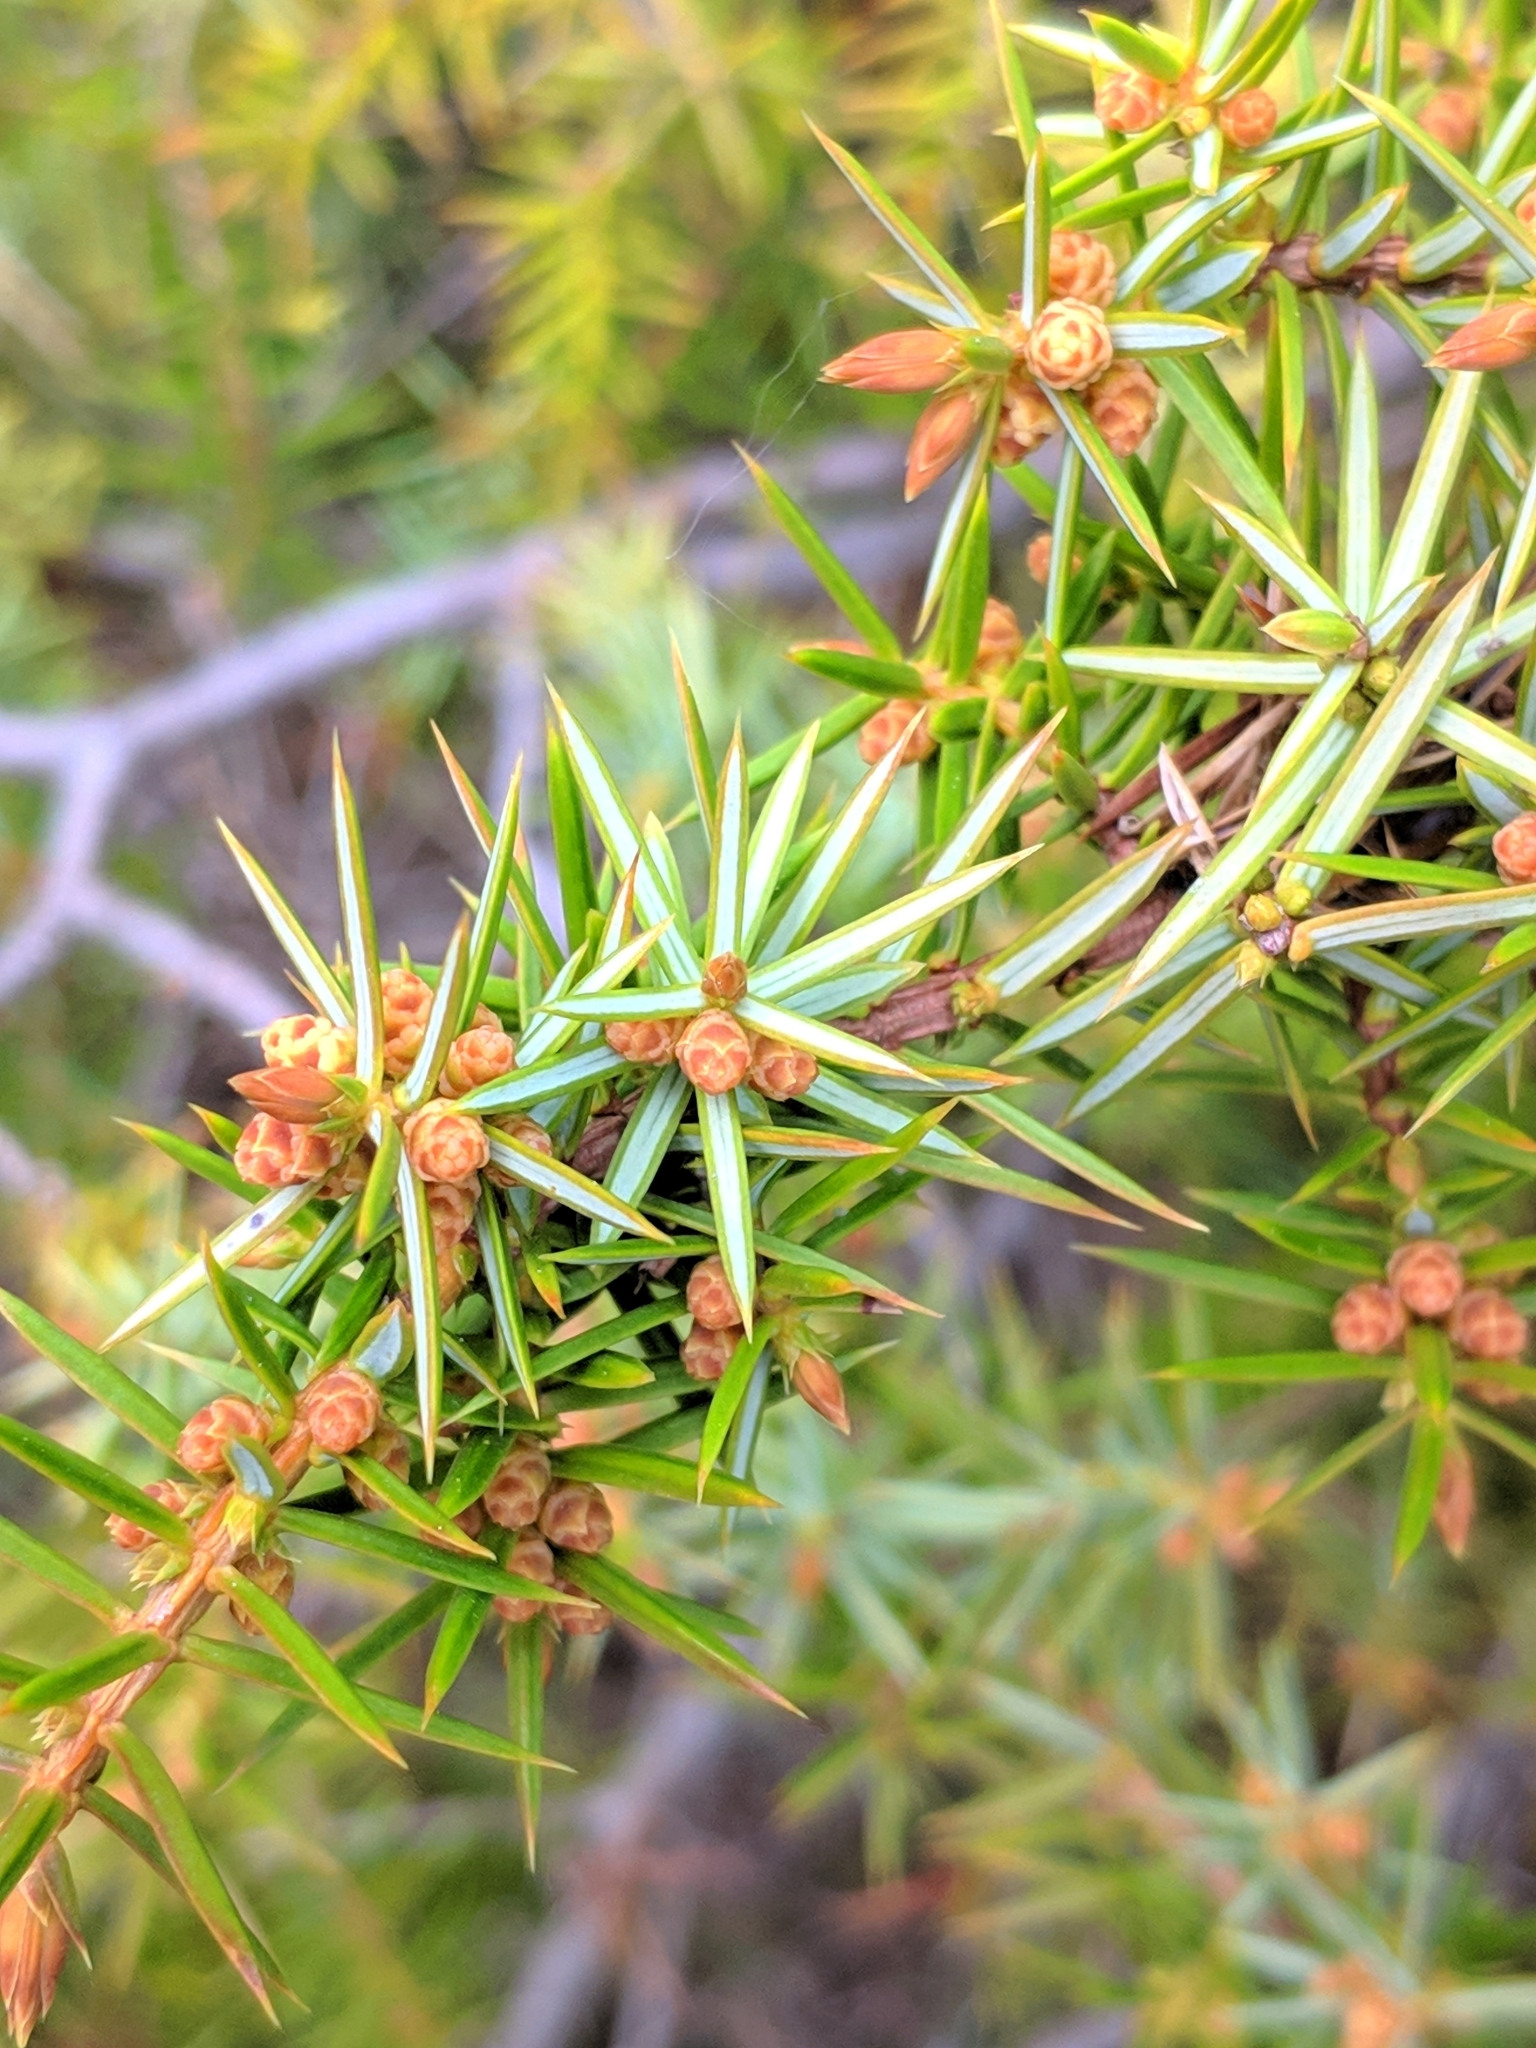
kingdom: Plantae
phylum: Tracheophyta
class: Pinopsida
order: Pinales
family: Cupressaceae
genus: Juniperus
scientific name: Juniperus communis
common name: Common juniper
